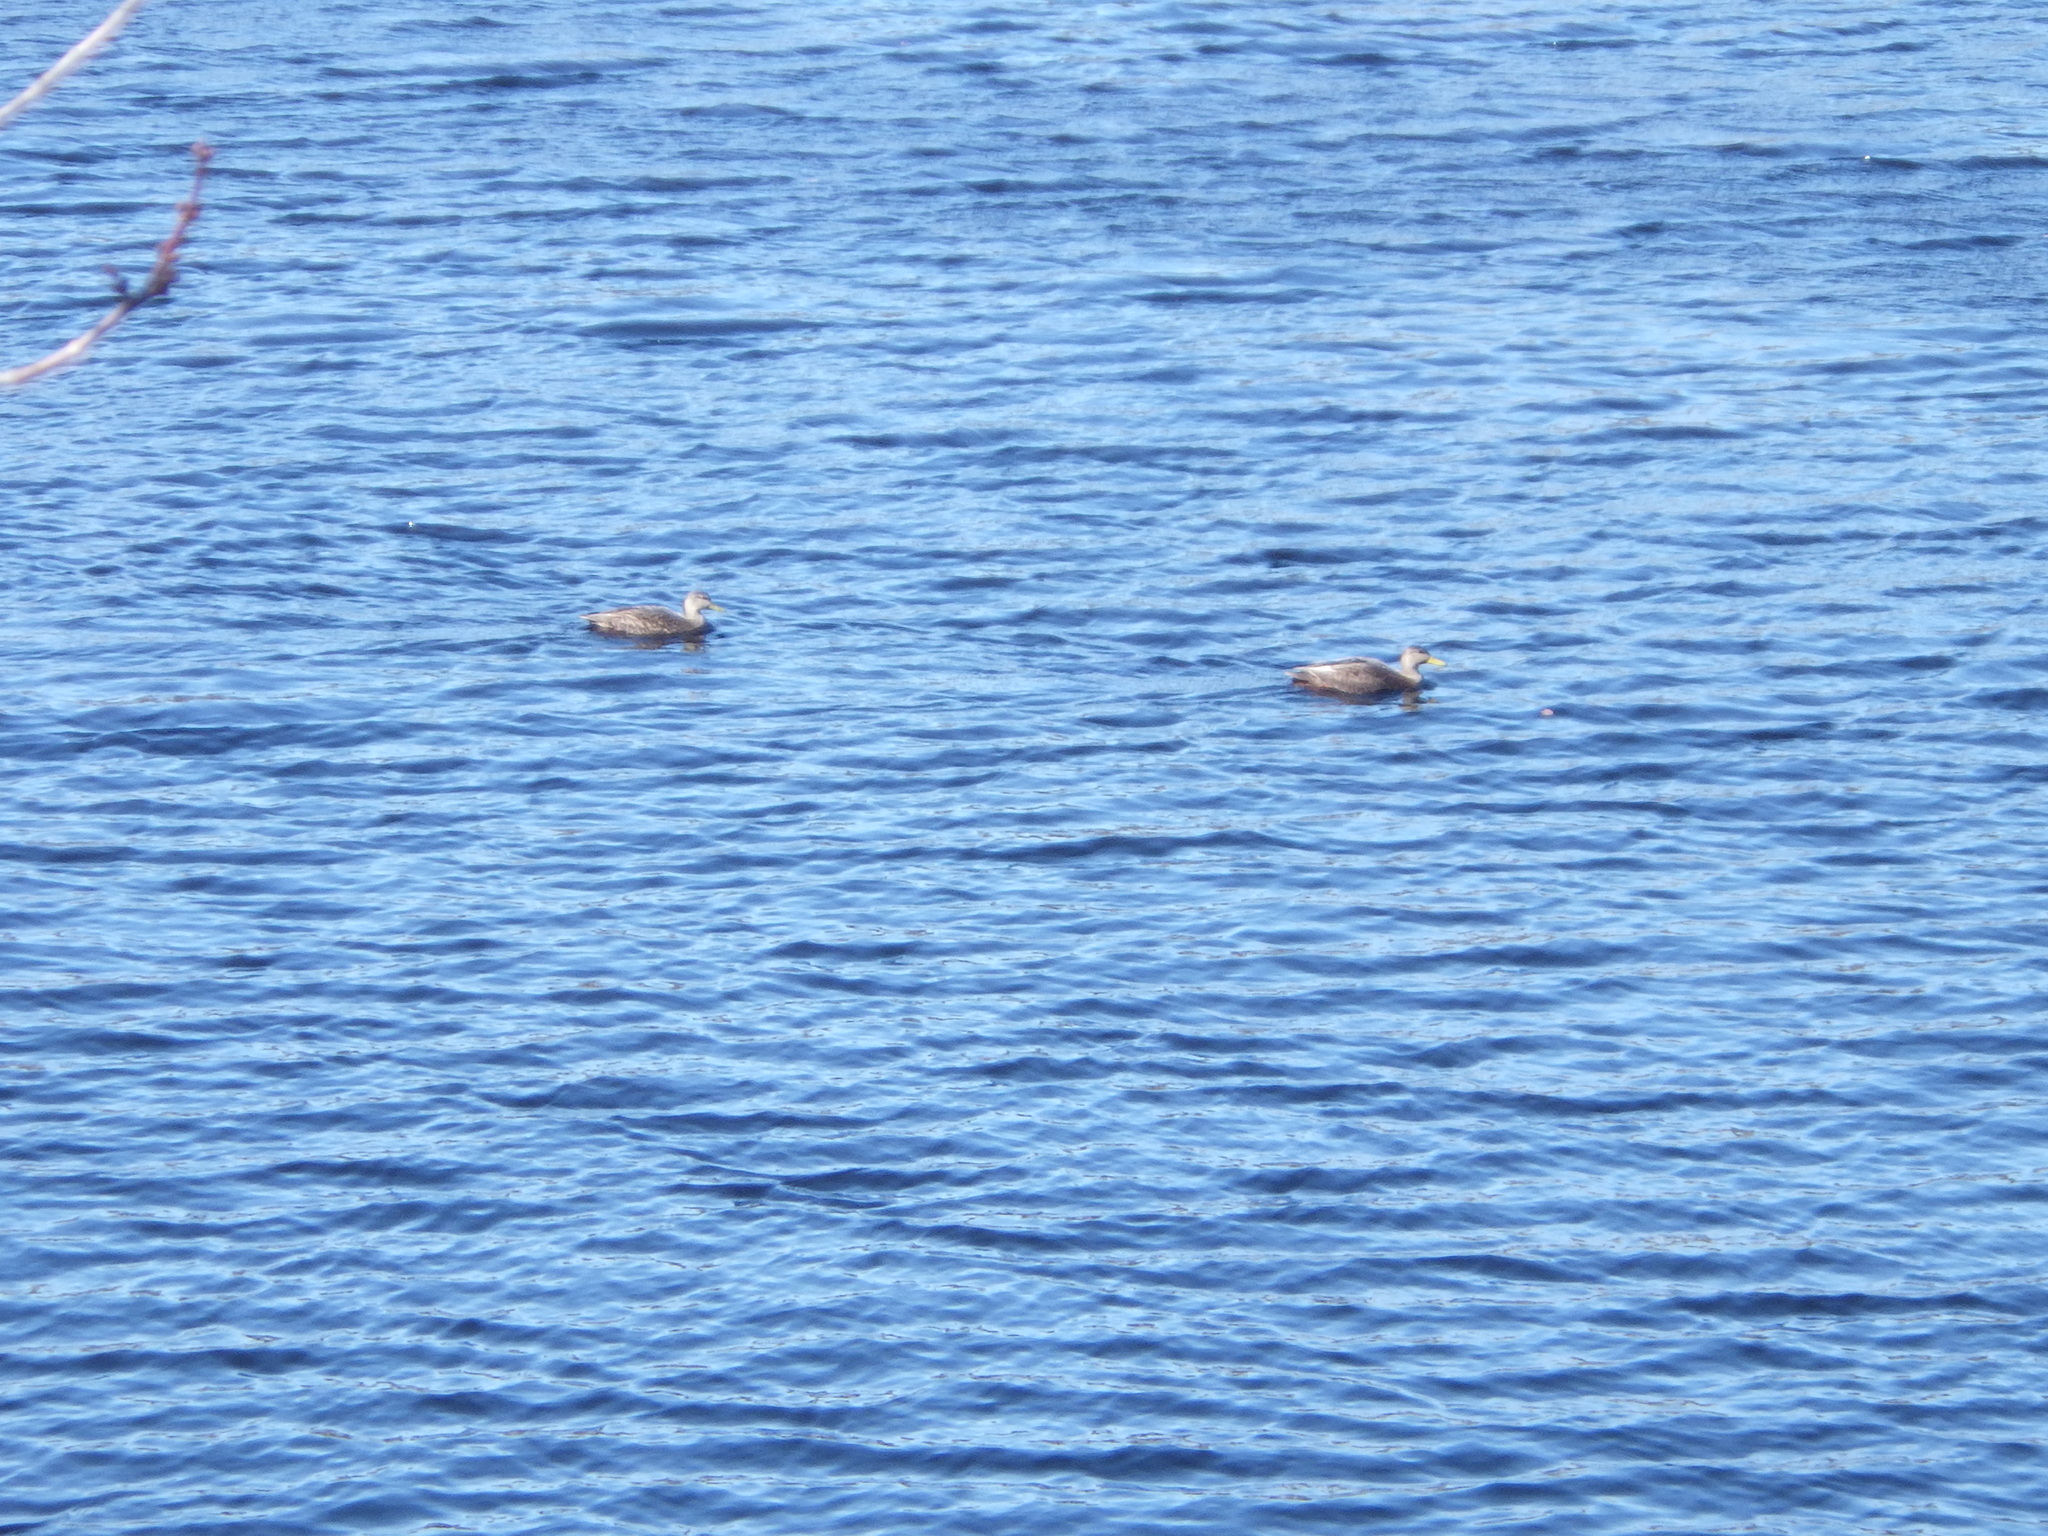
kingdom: Animalia
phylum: Chordata
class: Aves
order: Anseriformes
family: Anatidae
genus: Anas
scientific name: Anas rubripes
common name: American black duck
